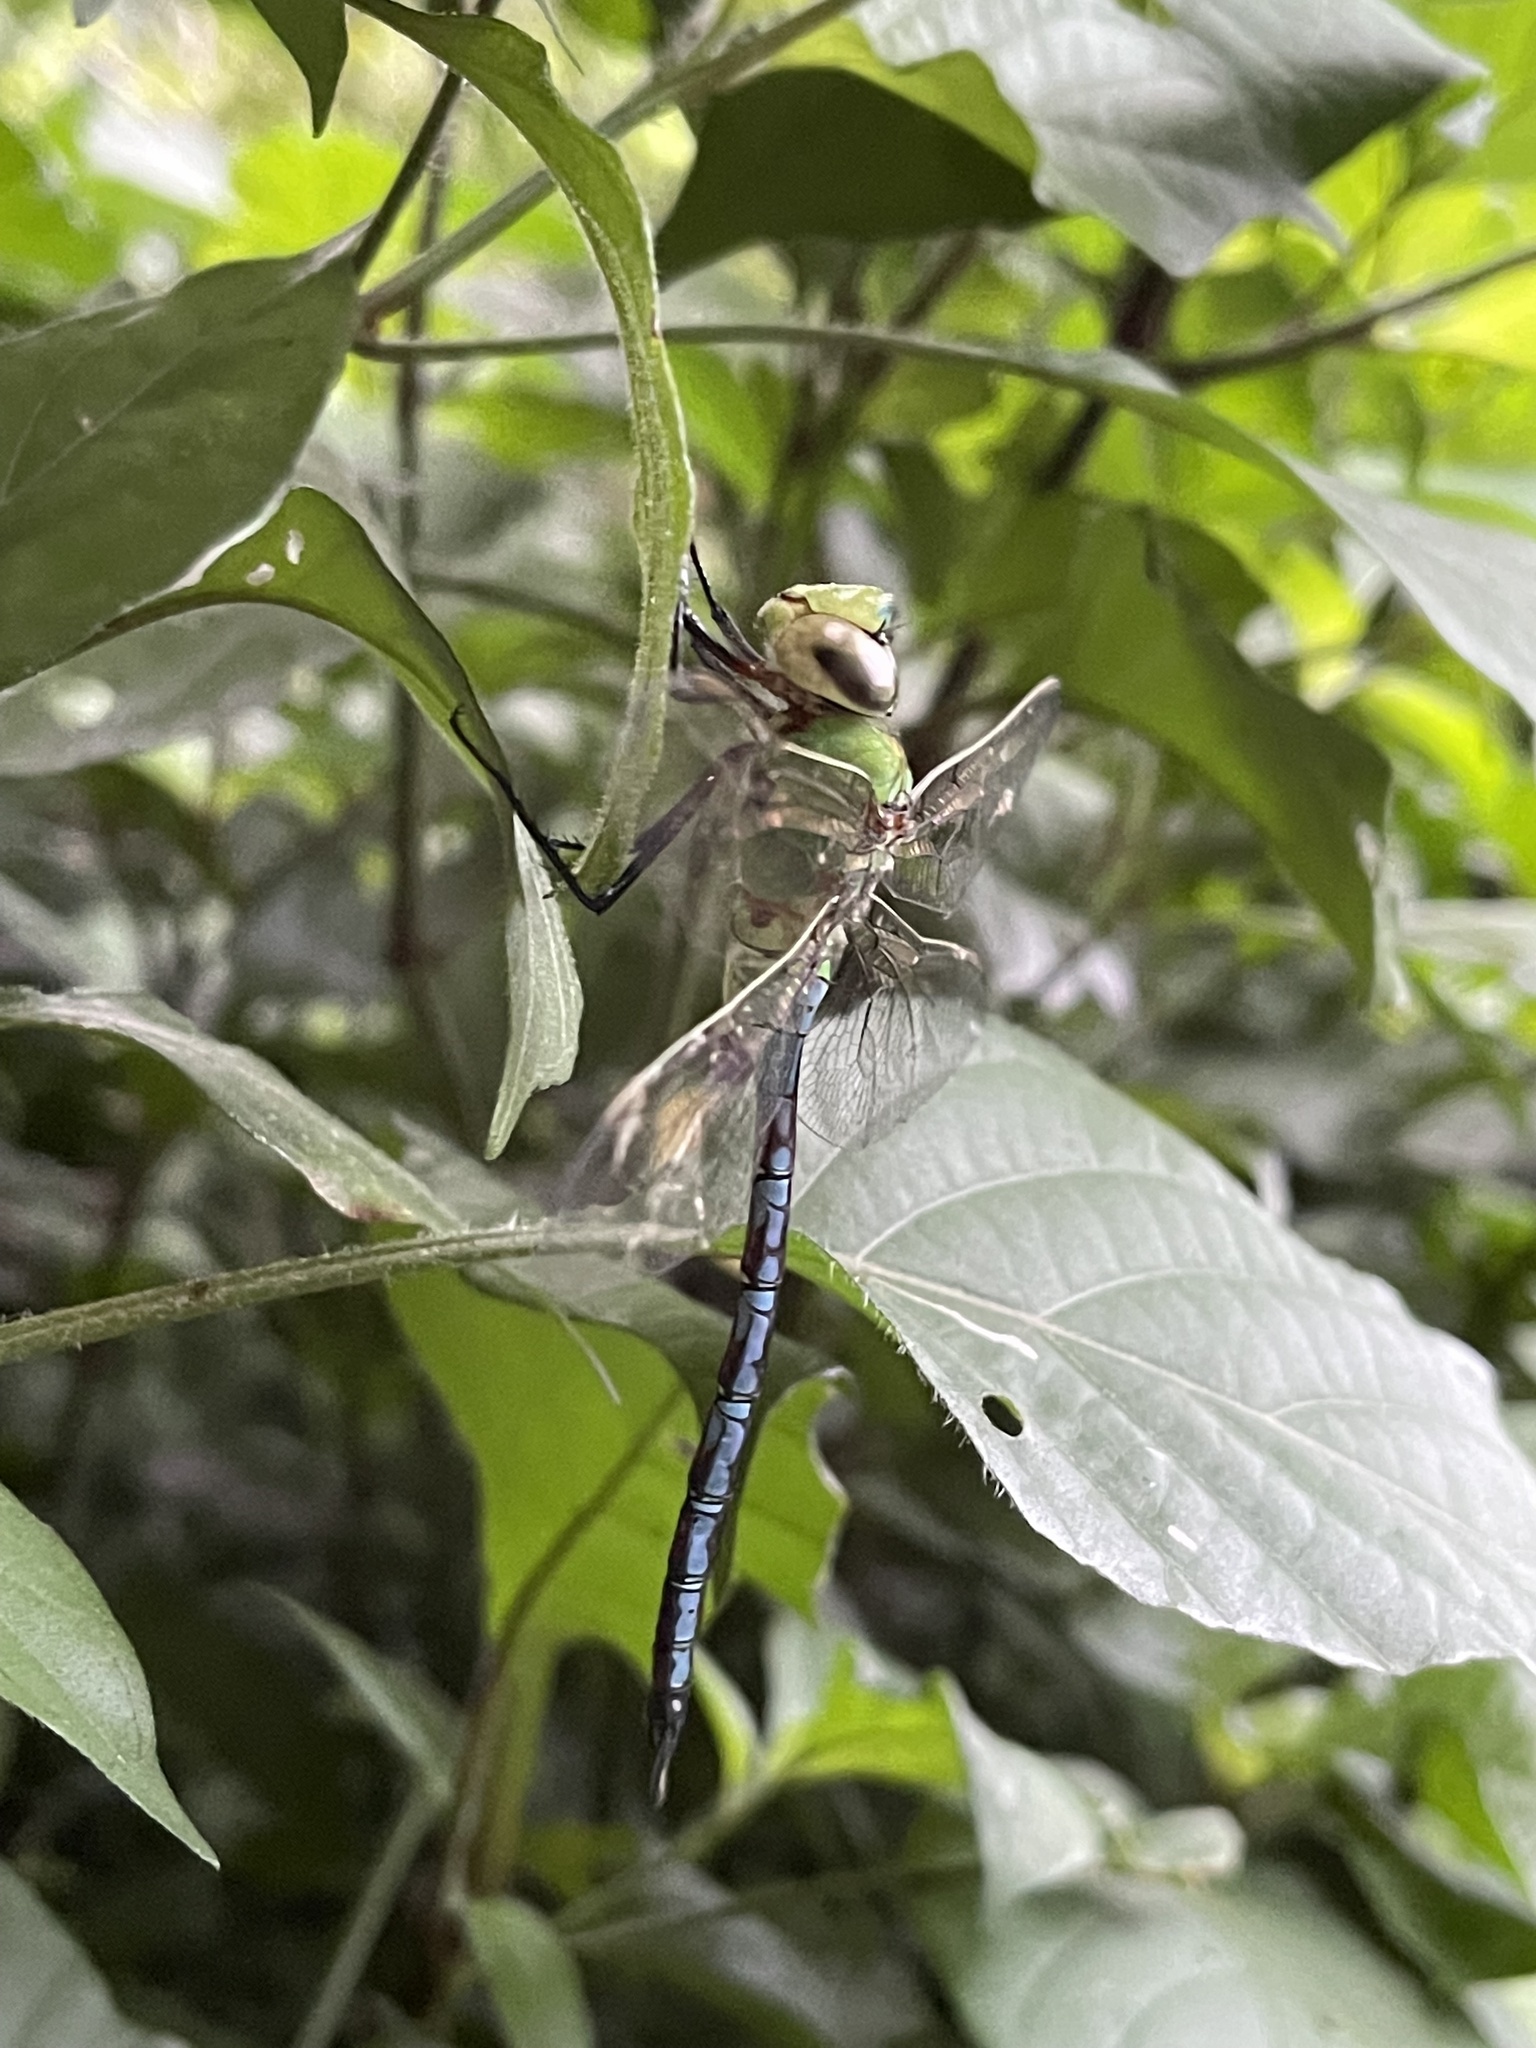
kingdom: Animalia
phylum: Arthropoda
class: Insecta
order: Odonata
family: Aeshnidae
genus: Anax
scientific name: Anax imperator
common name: Emperor dragonfly
